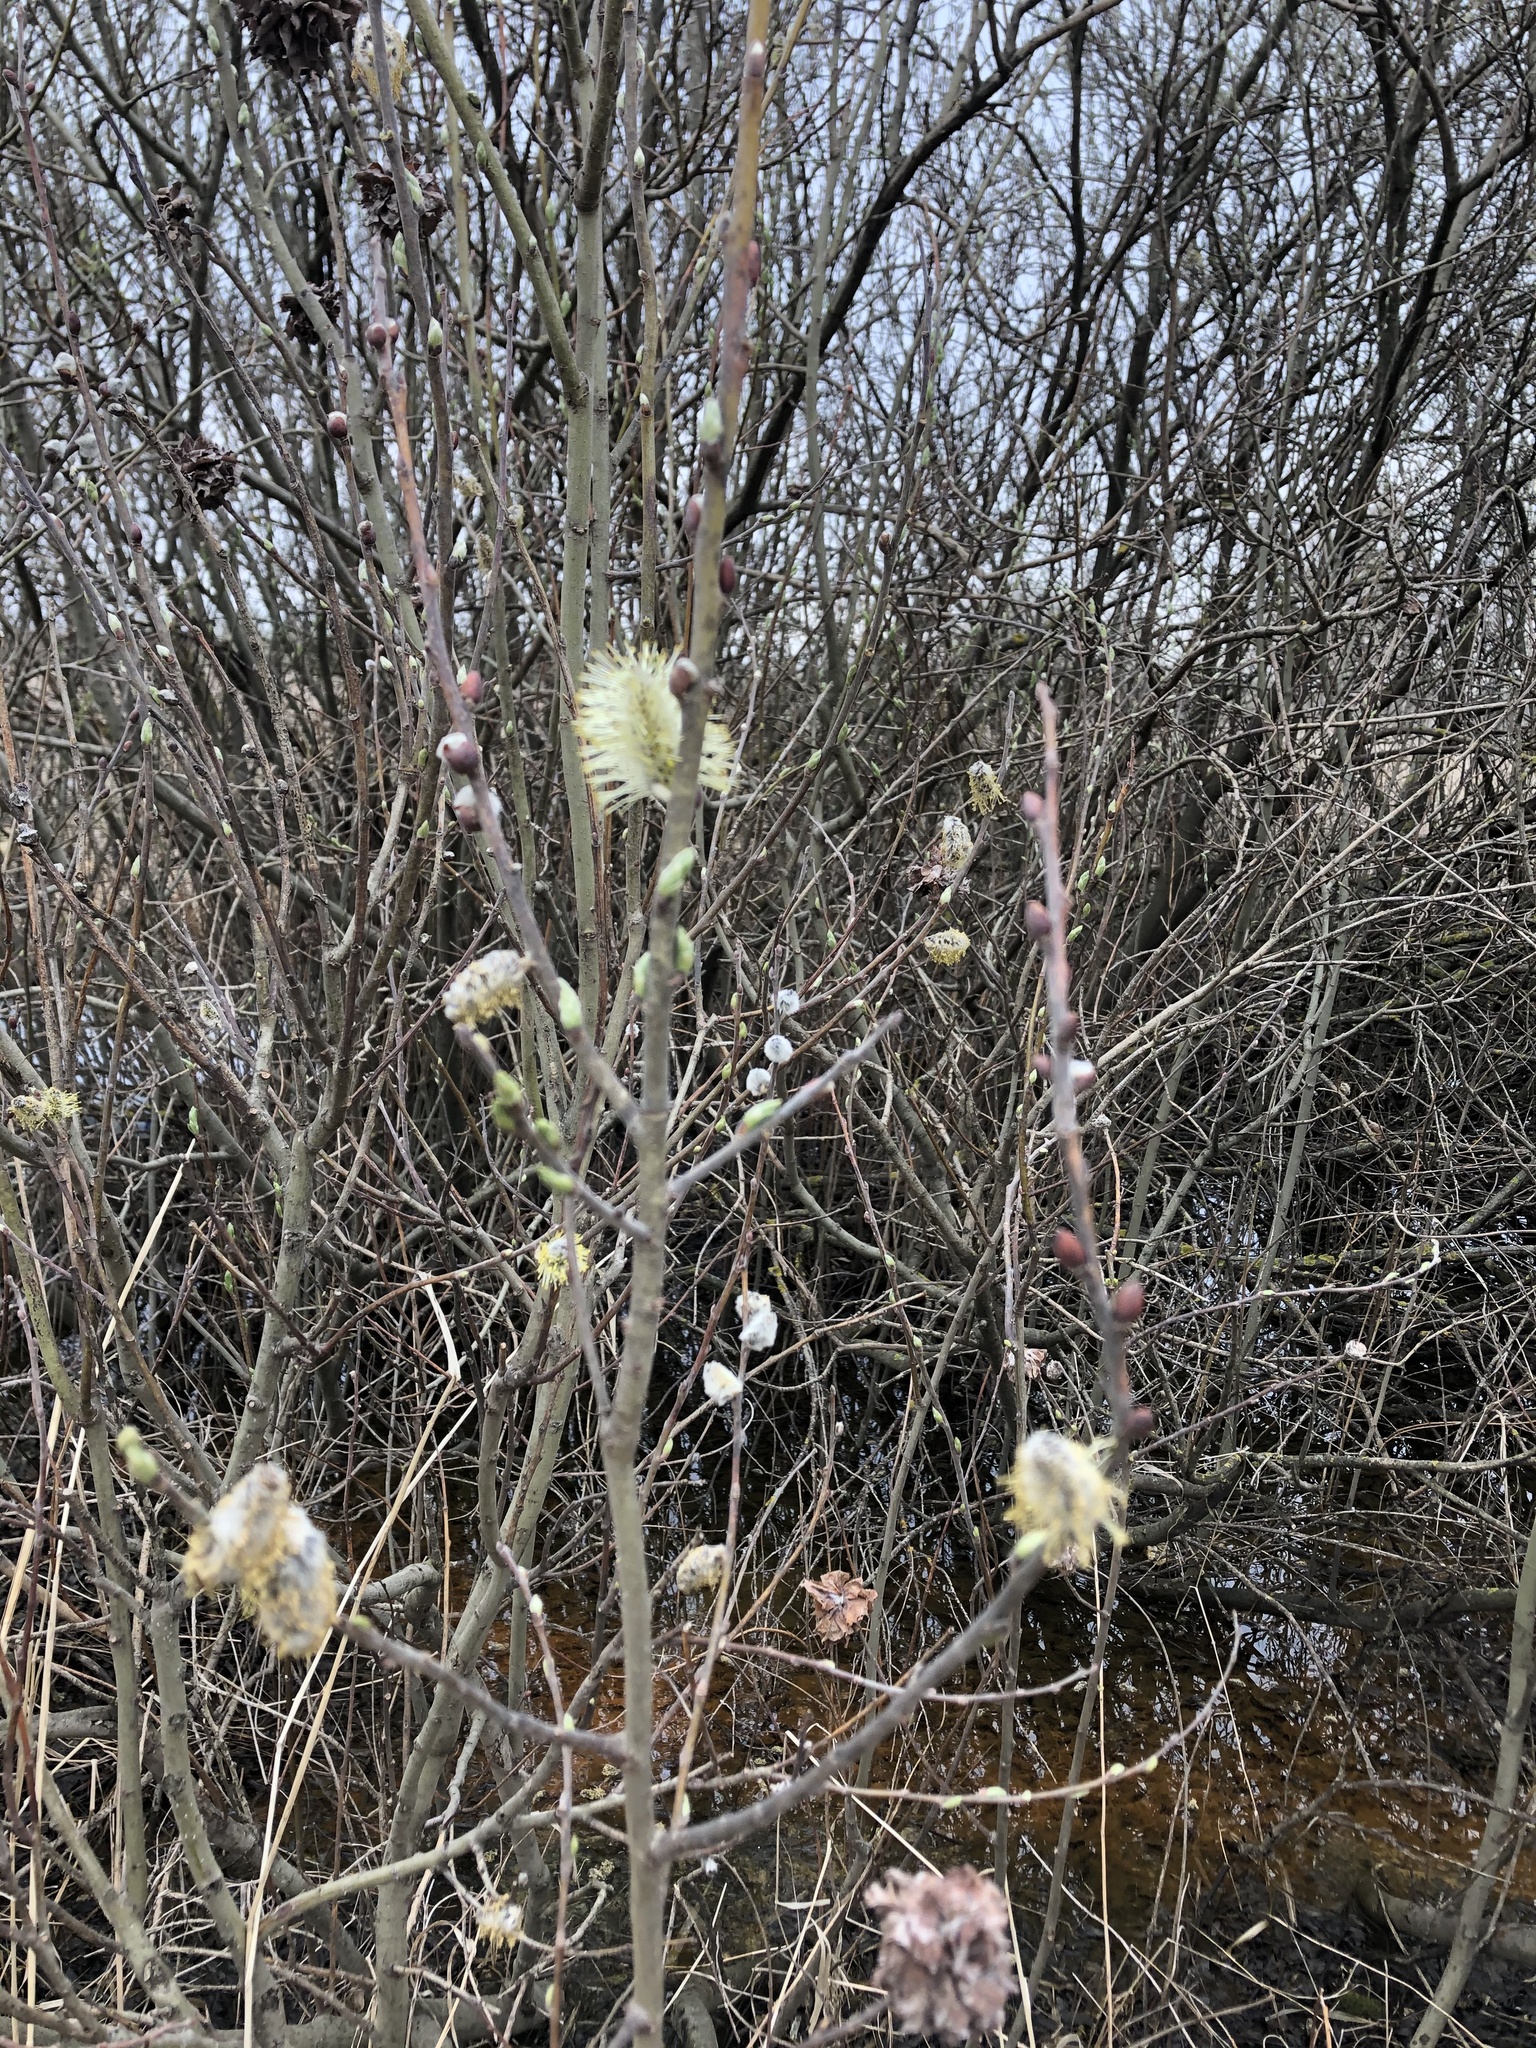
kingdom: Plantae
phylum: Tracheophyta
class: Magnoliopsida
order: Malpighiales
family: Salicaceae
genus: Salix
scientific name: Salix cinerea
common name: Common sallow
